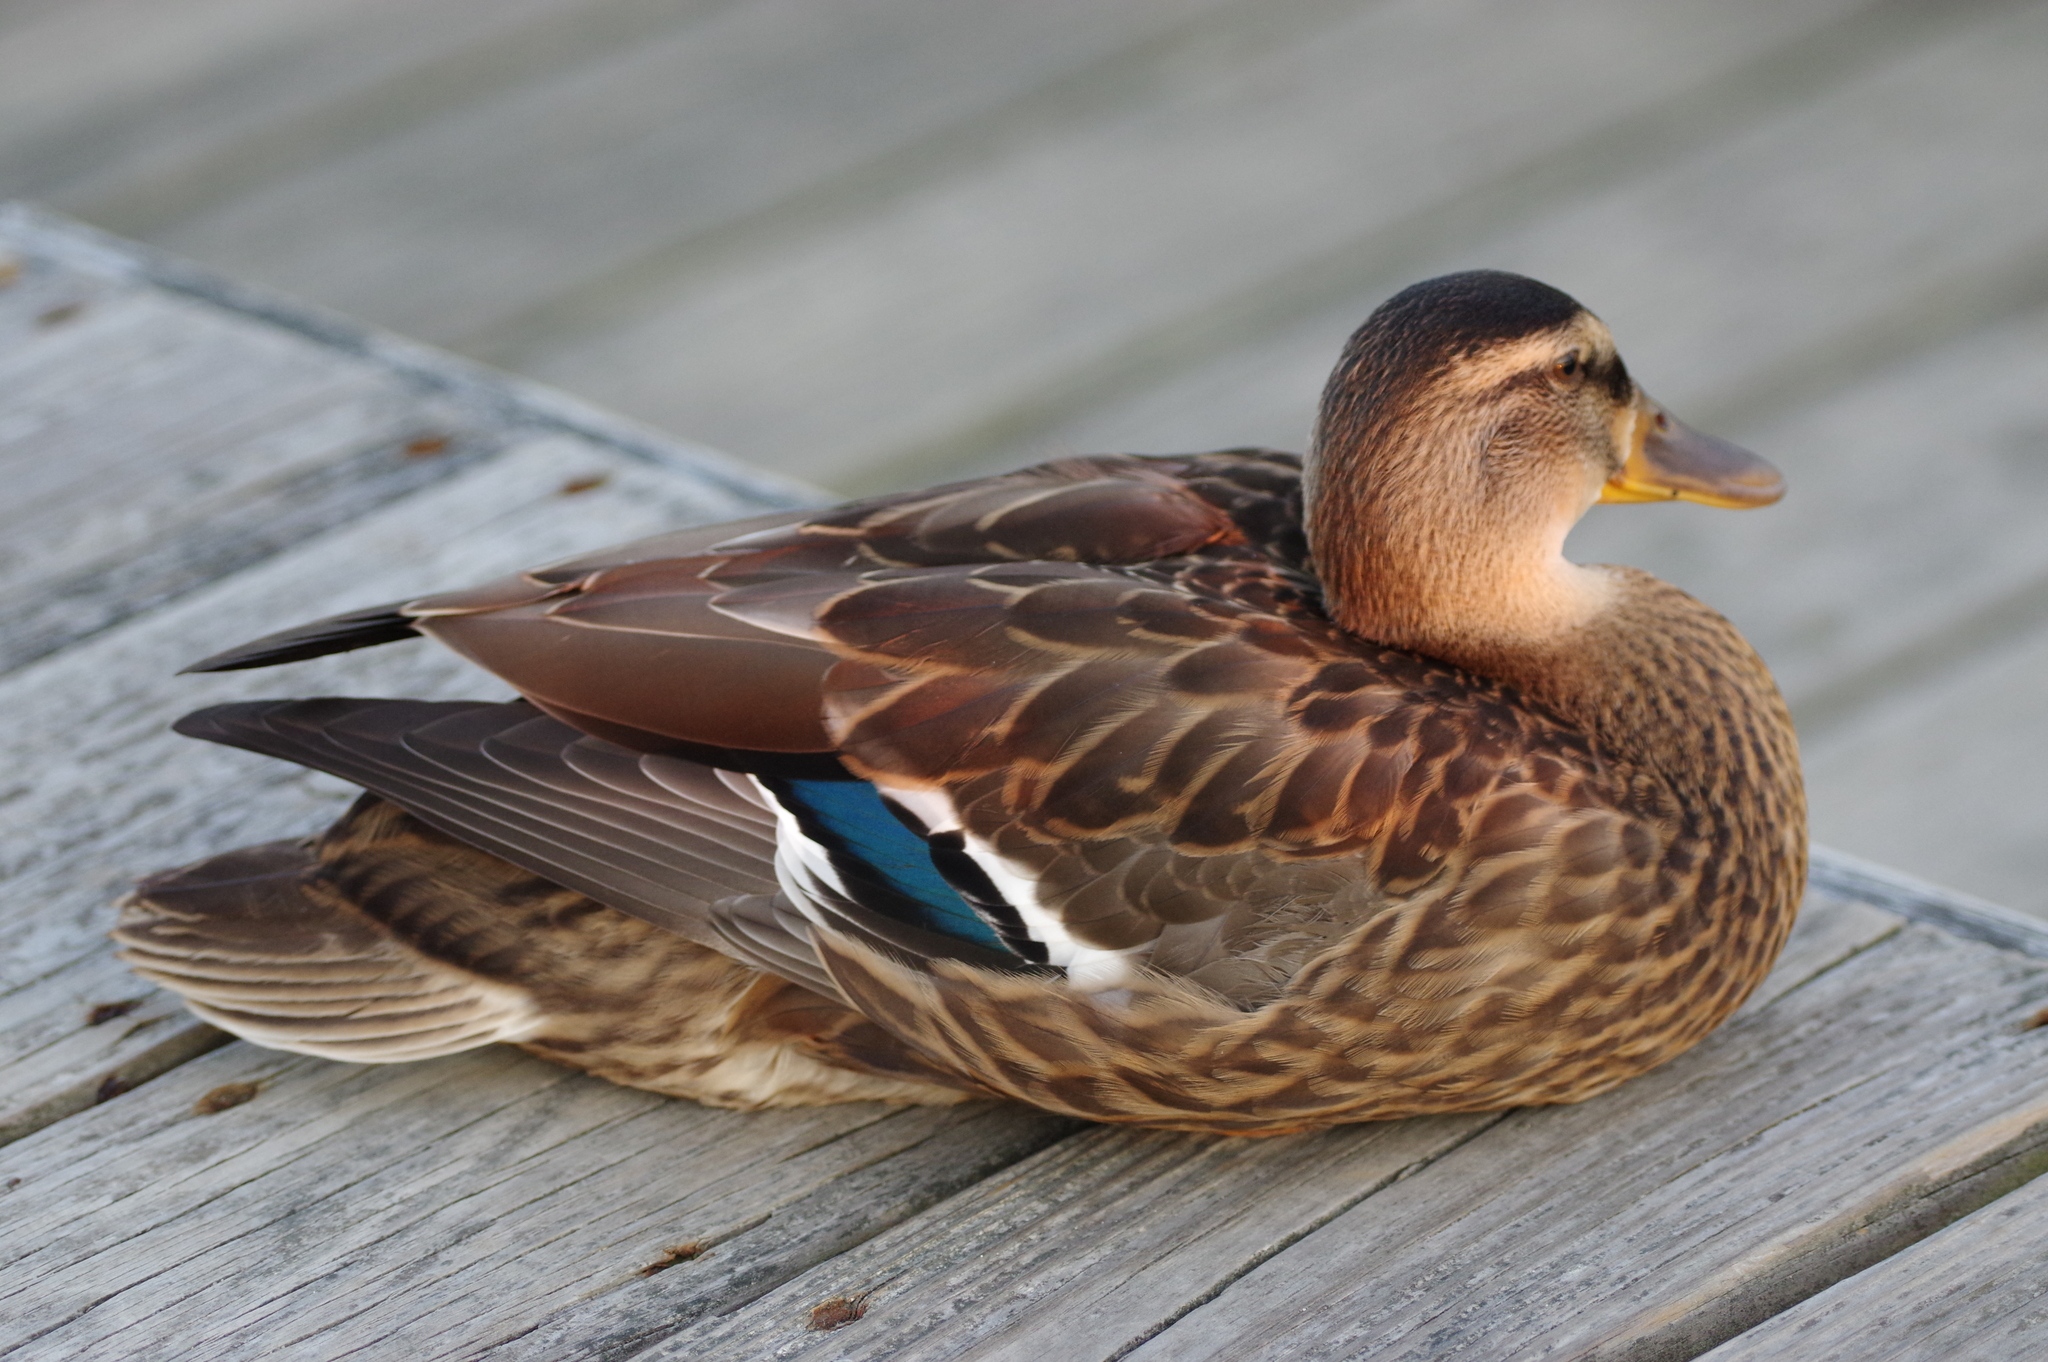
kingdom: Animalia
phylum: Chordata
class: Aves
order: Anseriformes
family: Anatidae
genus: Anas
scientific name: Anas platyrhynchos
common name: Mallard
